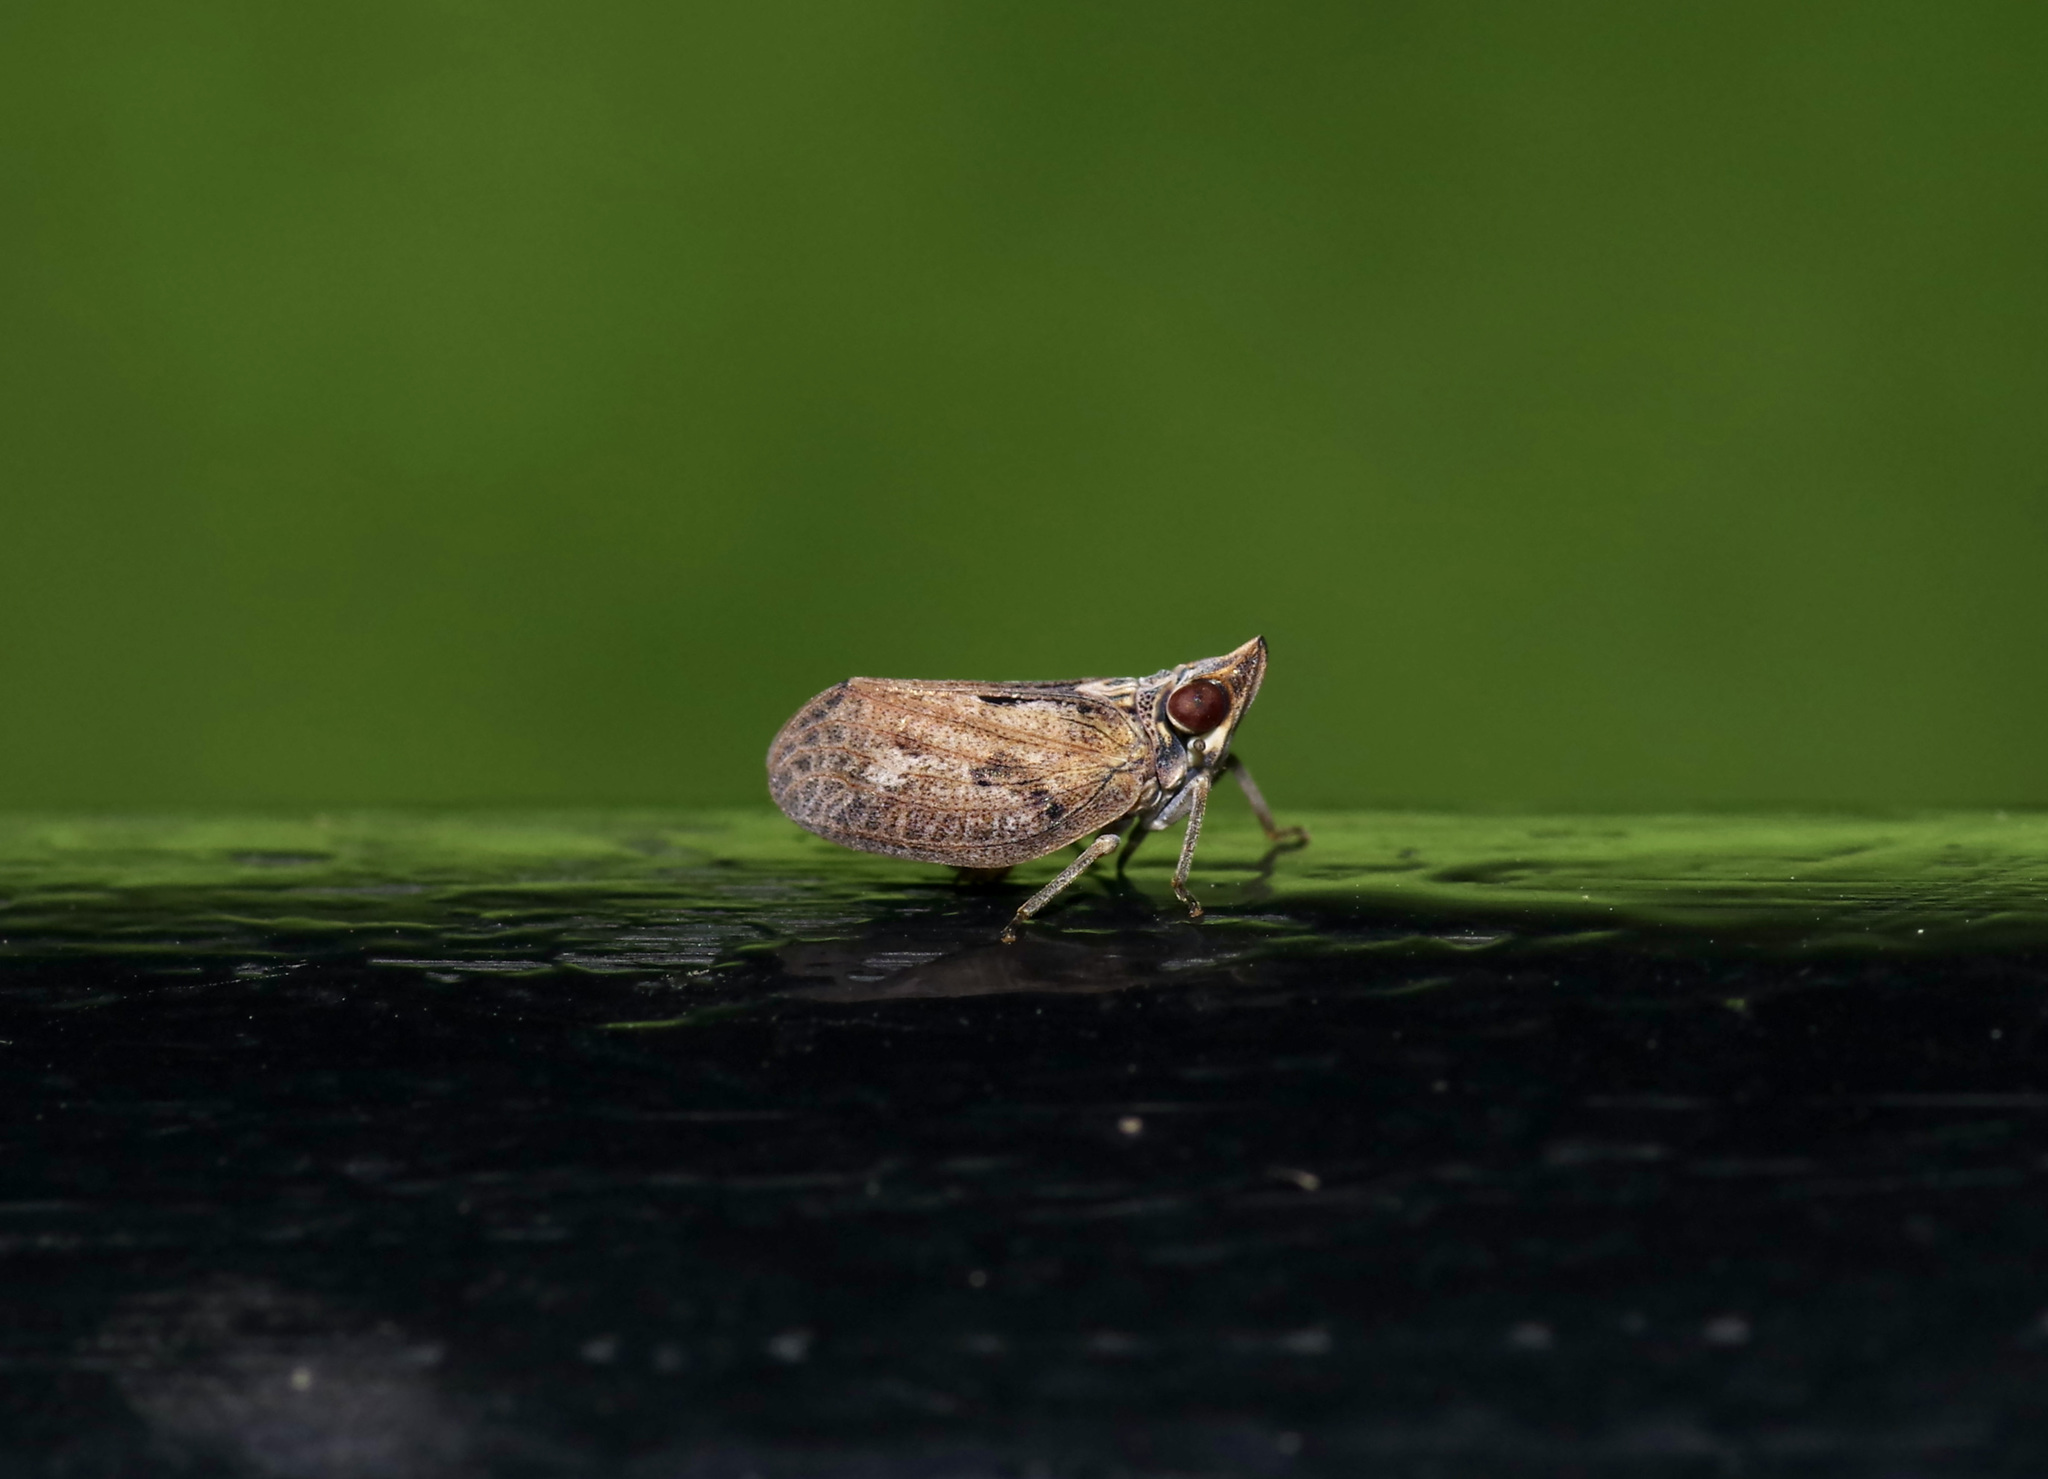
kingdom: Animalia
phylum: Arthropoda
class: Insecta
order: Hemiptera
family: Issidae
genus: Fowlerium
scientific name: Fowlerium acutum
